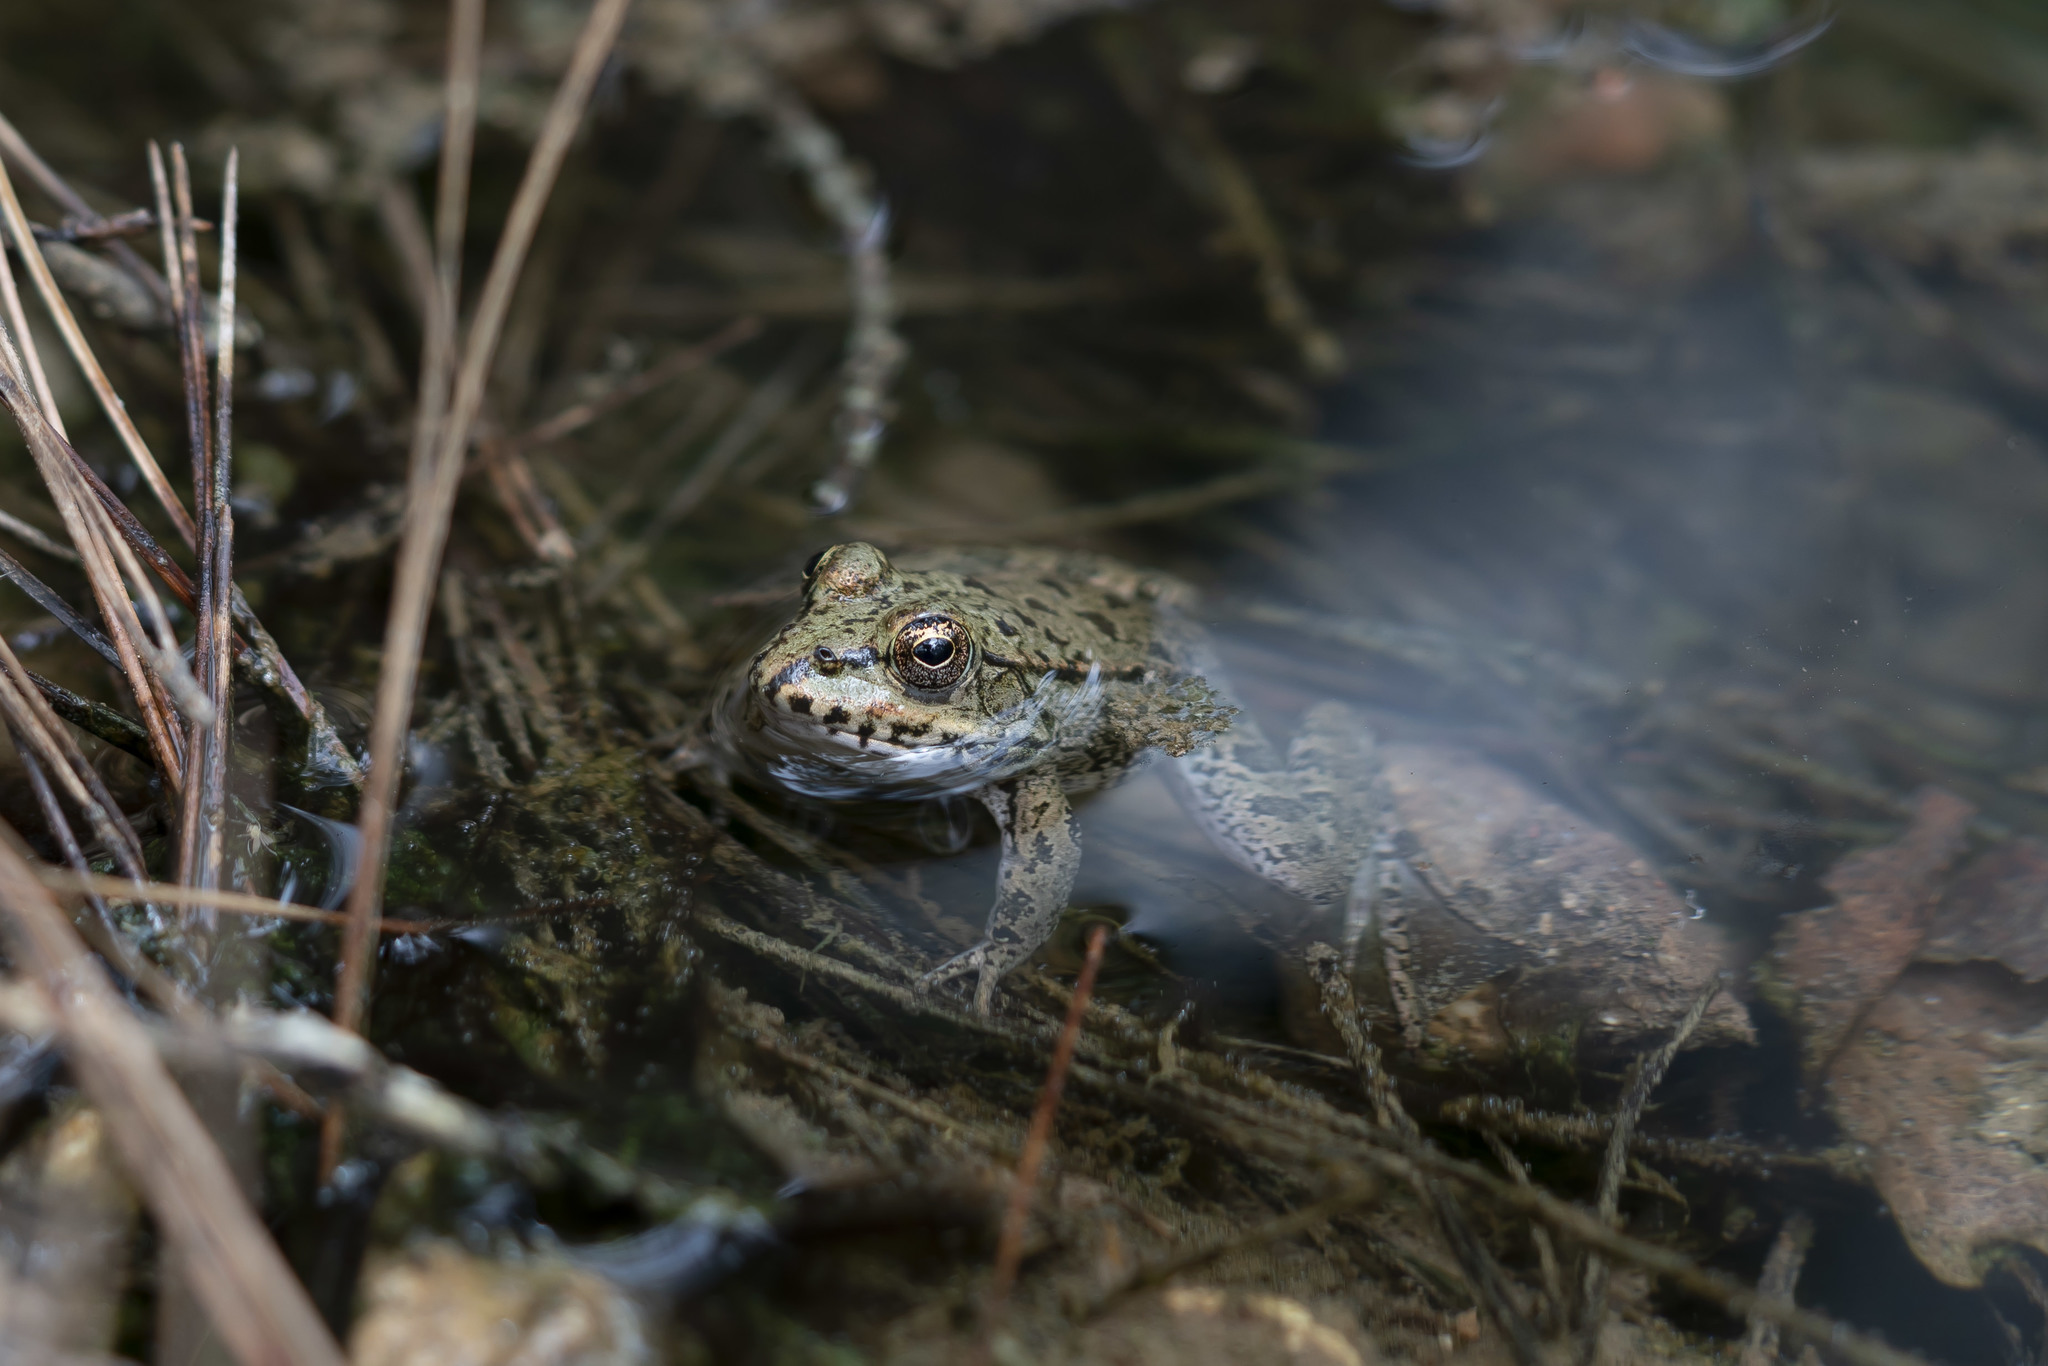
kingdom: Animalia
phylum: Chordata
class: Amphibia
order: Anura
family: Ranidae
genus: Pelophylax
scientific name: Pelophylax ridibundus
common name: Marsh frog
